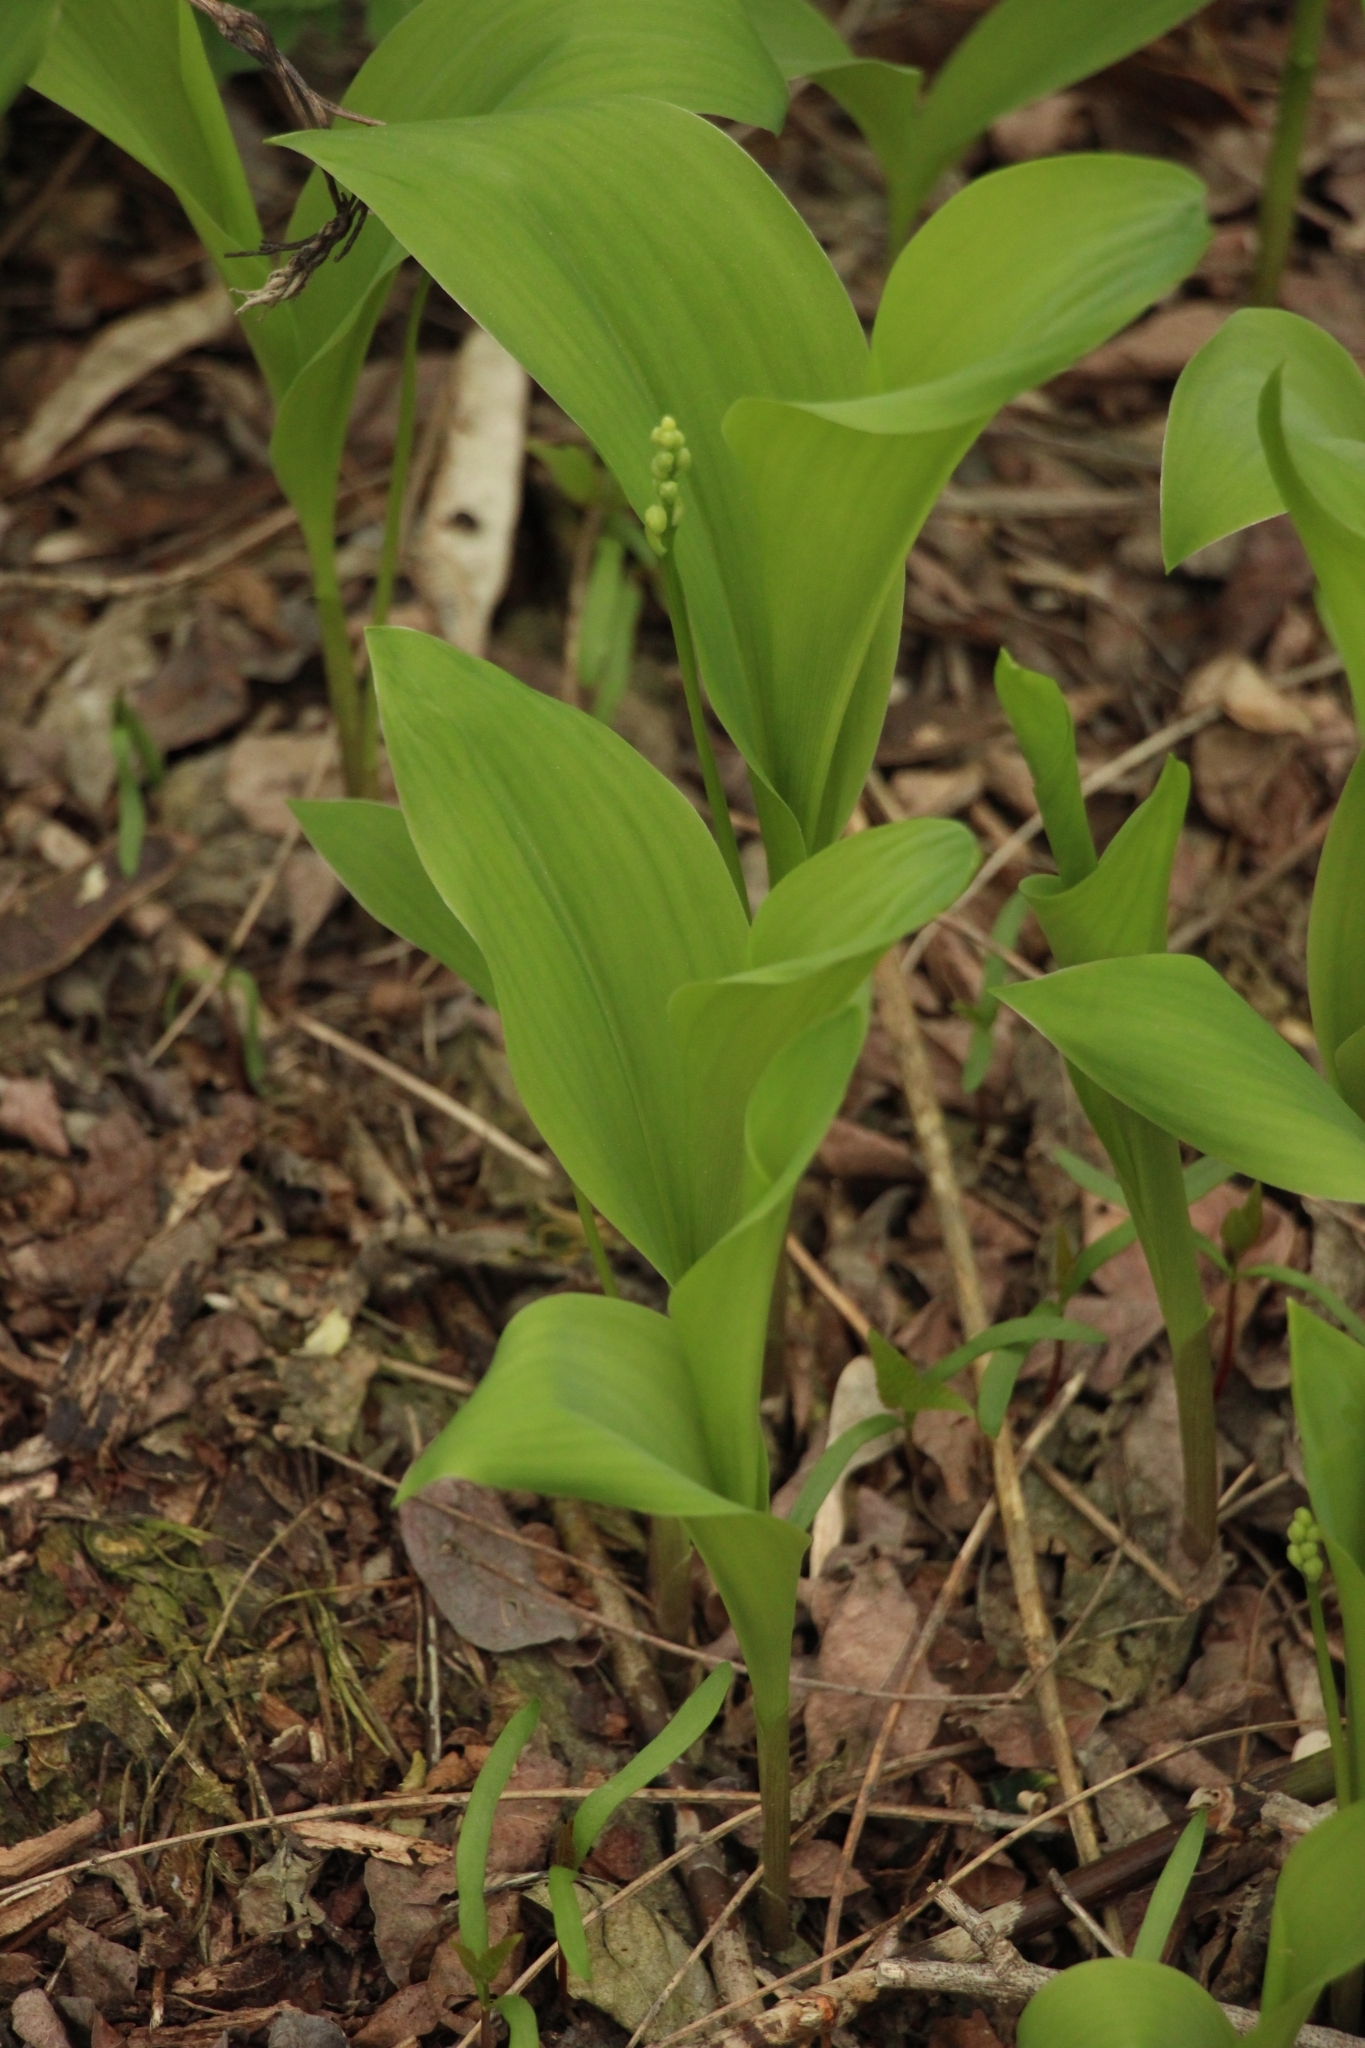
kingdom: Plantae
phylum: Tracheophyta
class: Liliopsida
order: Asparagales
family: Asparagaceae
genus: Convallaria
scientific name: Convallaria majalis
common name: Lily-of-the-valley
